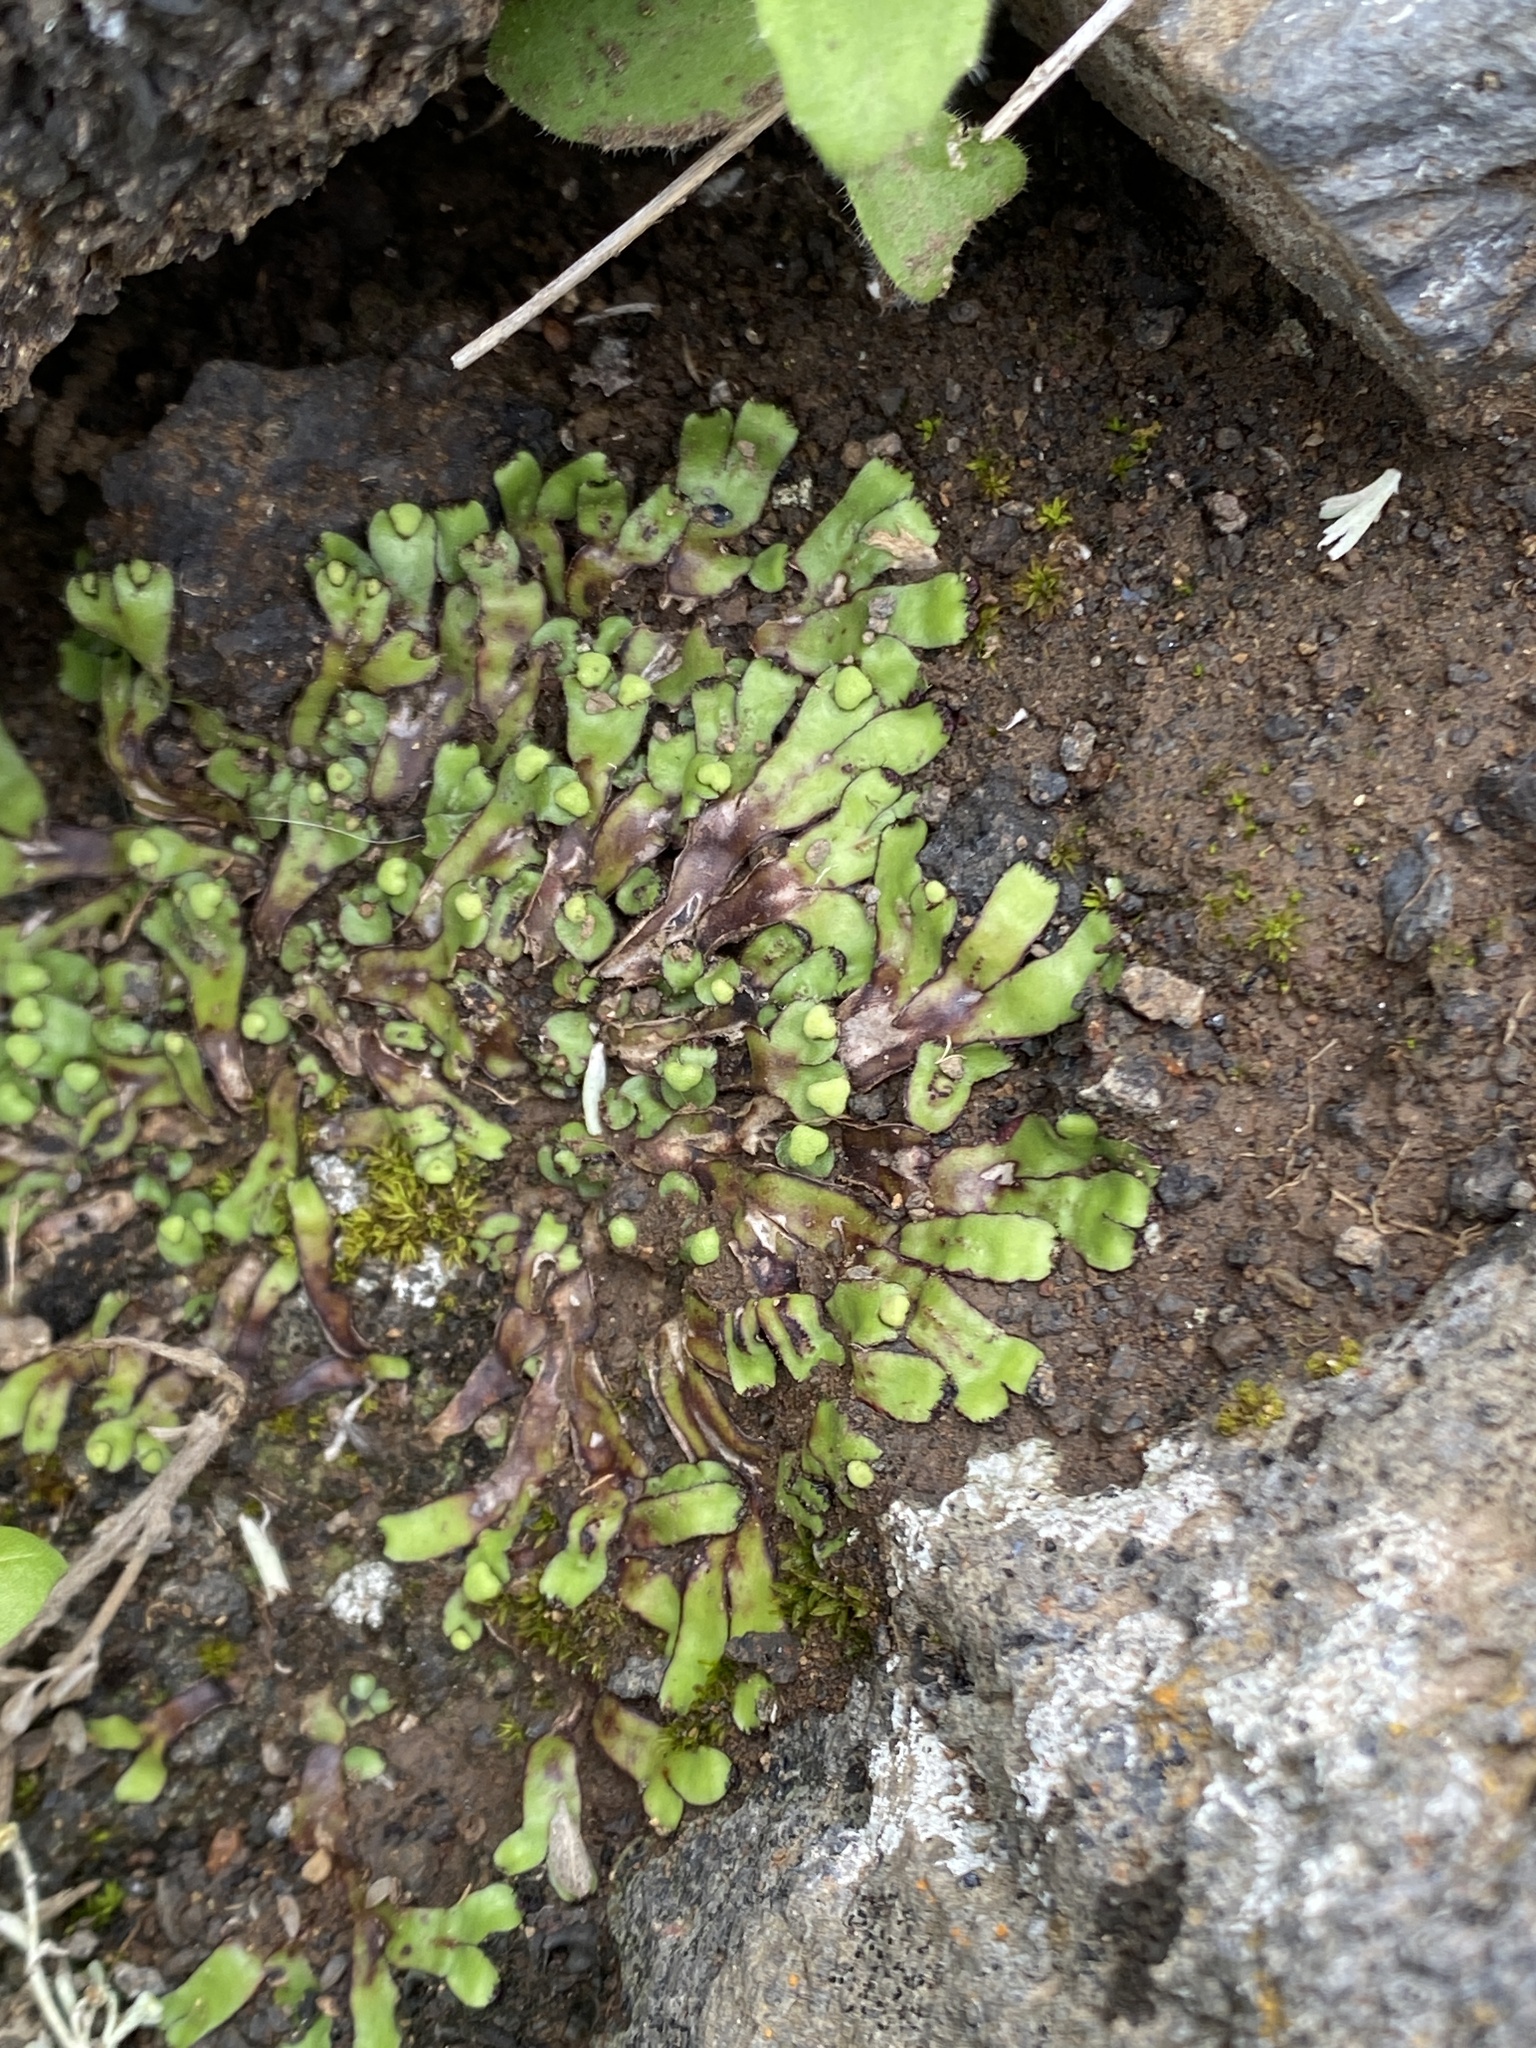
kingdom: Plantae
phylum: Marchantiophyta
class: Marchantiopsida
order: Marchantiales
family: Aytoniaceae
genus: Mannia
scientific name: Mannia androgyna
